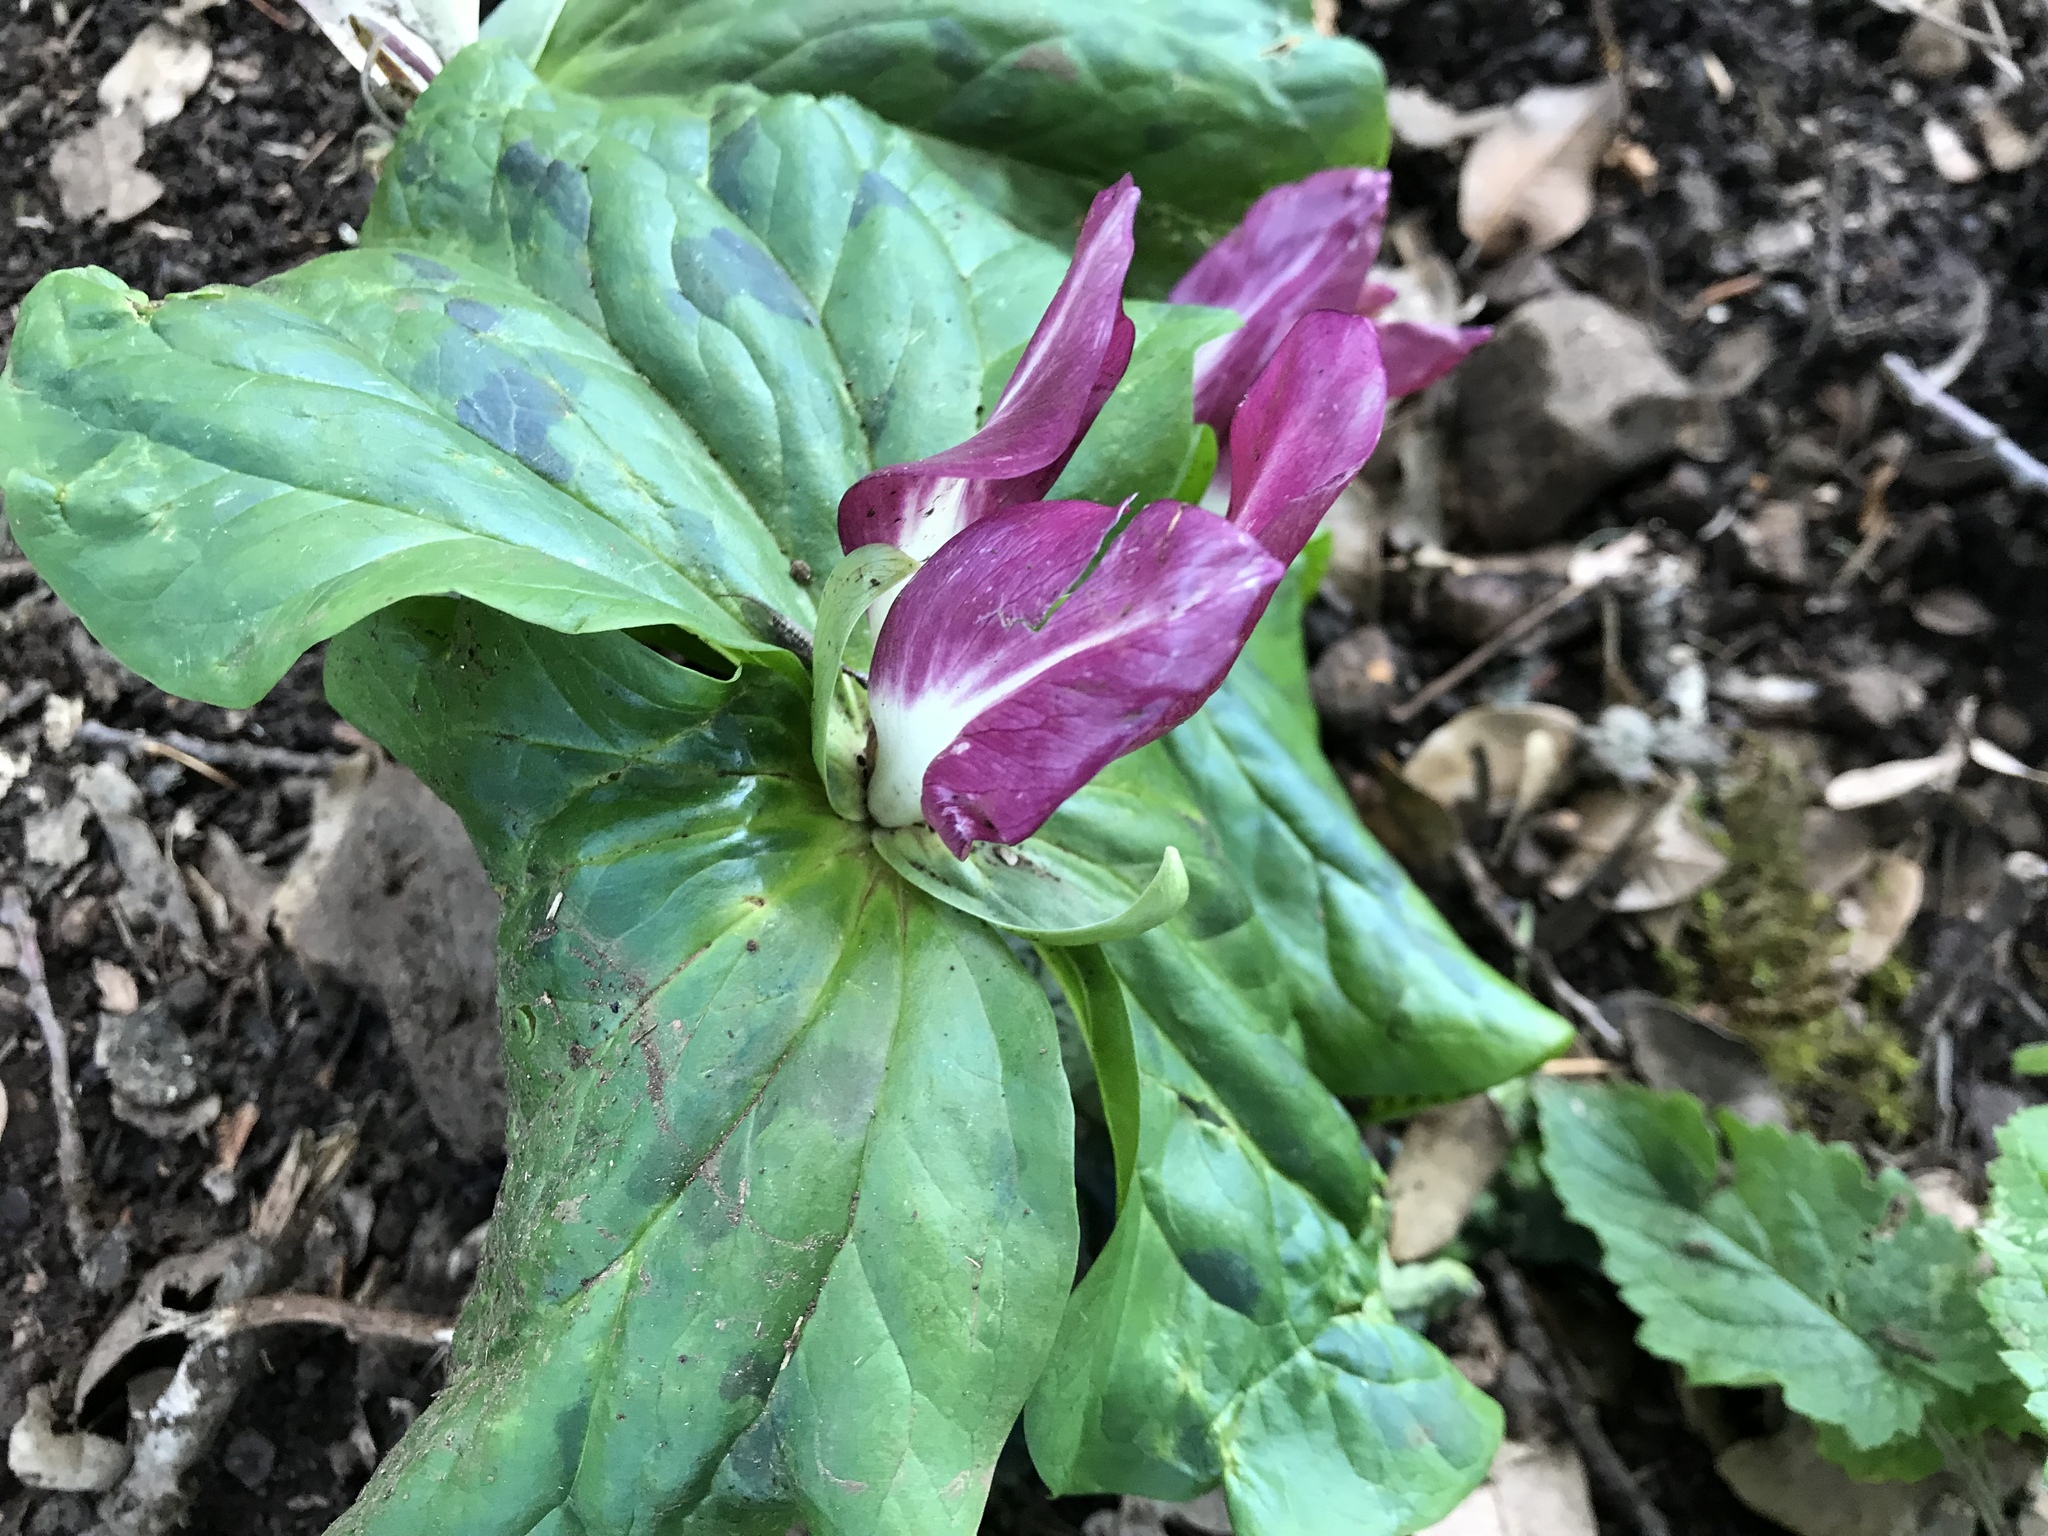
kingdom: Plantae
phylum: Tracheophyta
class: Liliopsida
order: Liliales
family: Melanthiaceae
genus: Trillium
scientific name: Trillium chloropetalum
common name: Giant trillium
